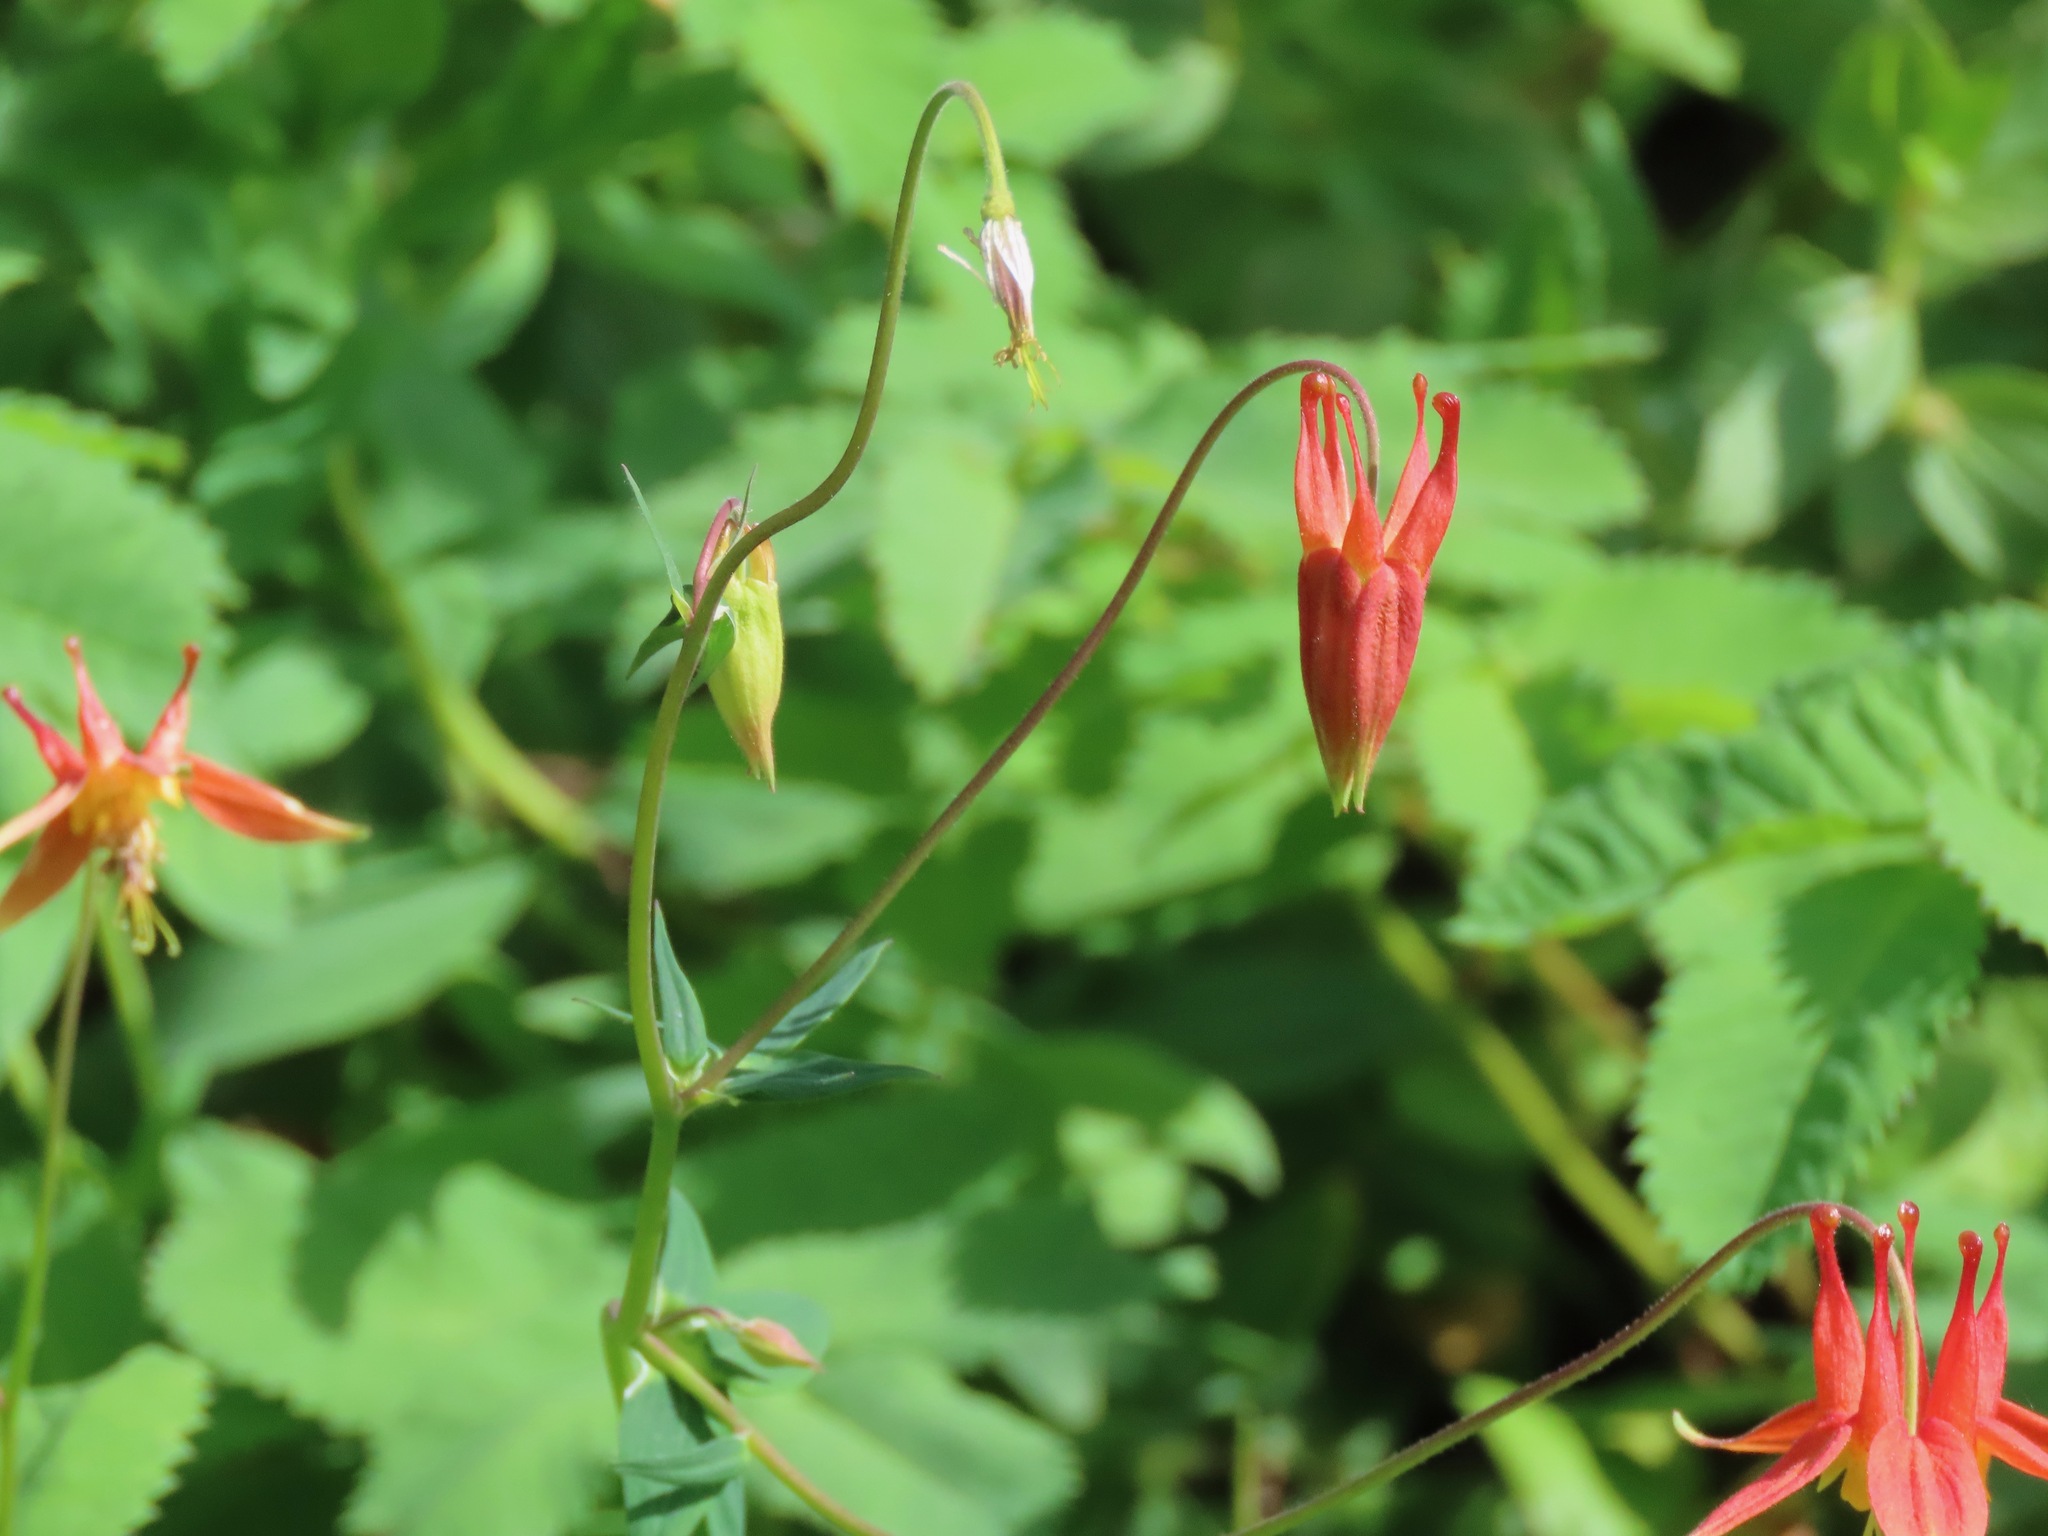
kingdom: Plantae
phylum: Tracheophyta
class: Magnoliopsida
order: Ranunculales
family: Ranunculaceae
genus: Aquilegia
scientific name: Aquilegia formosa
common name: Sitka columbine
